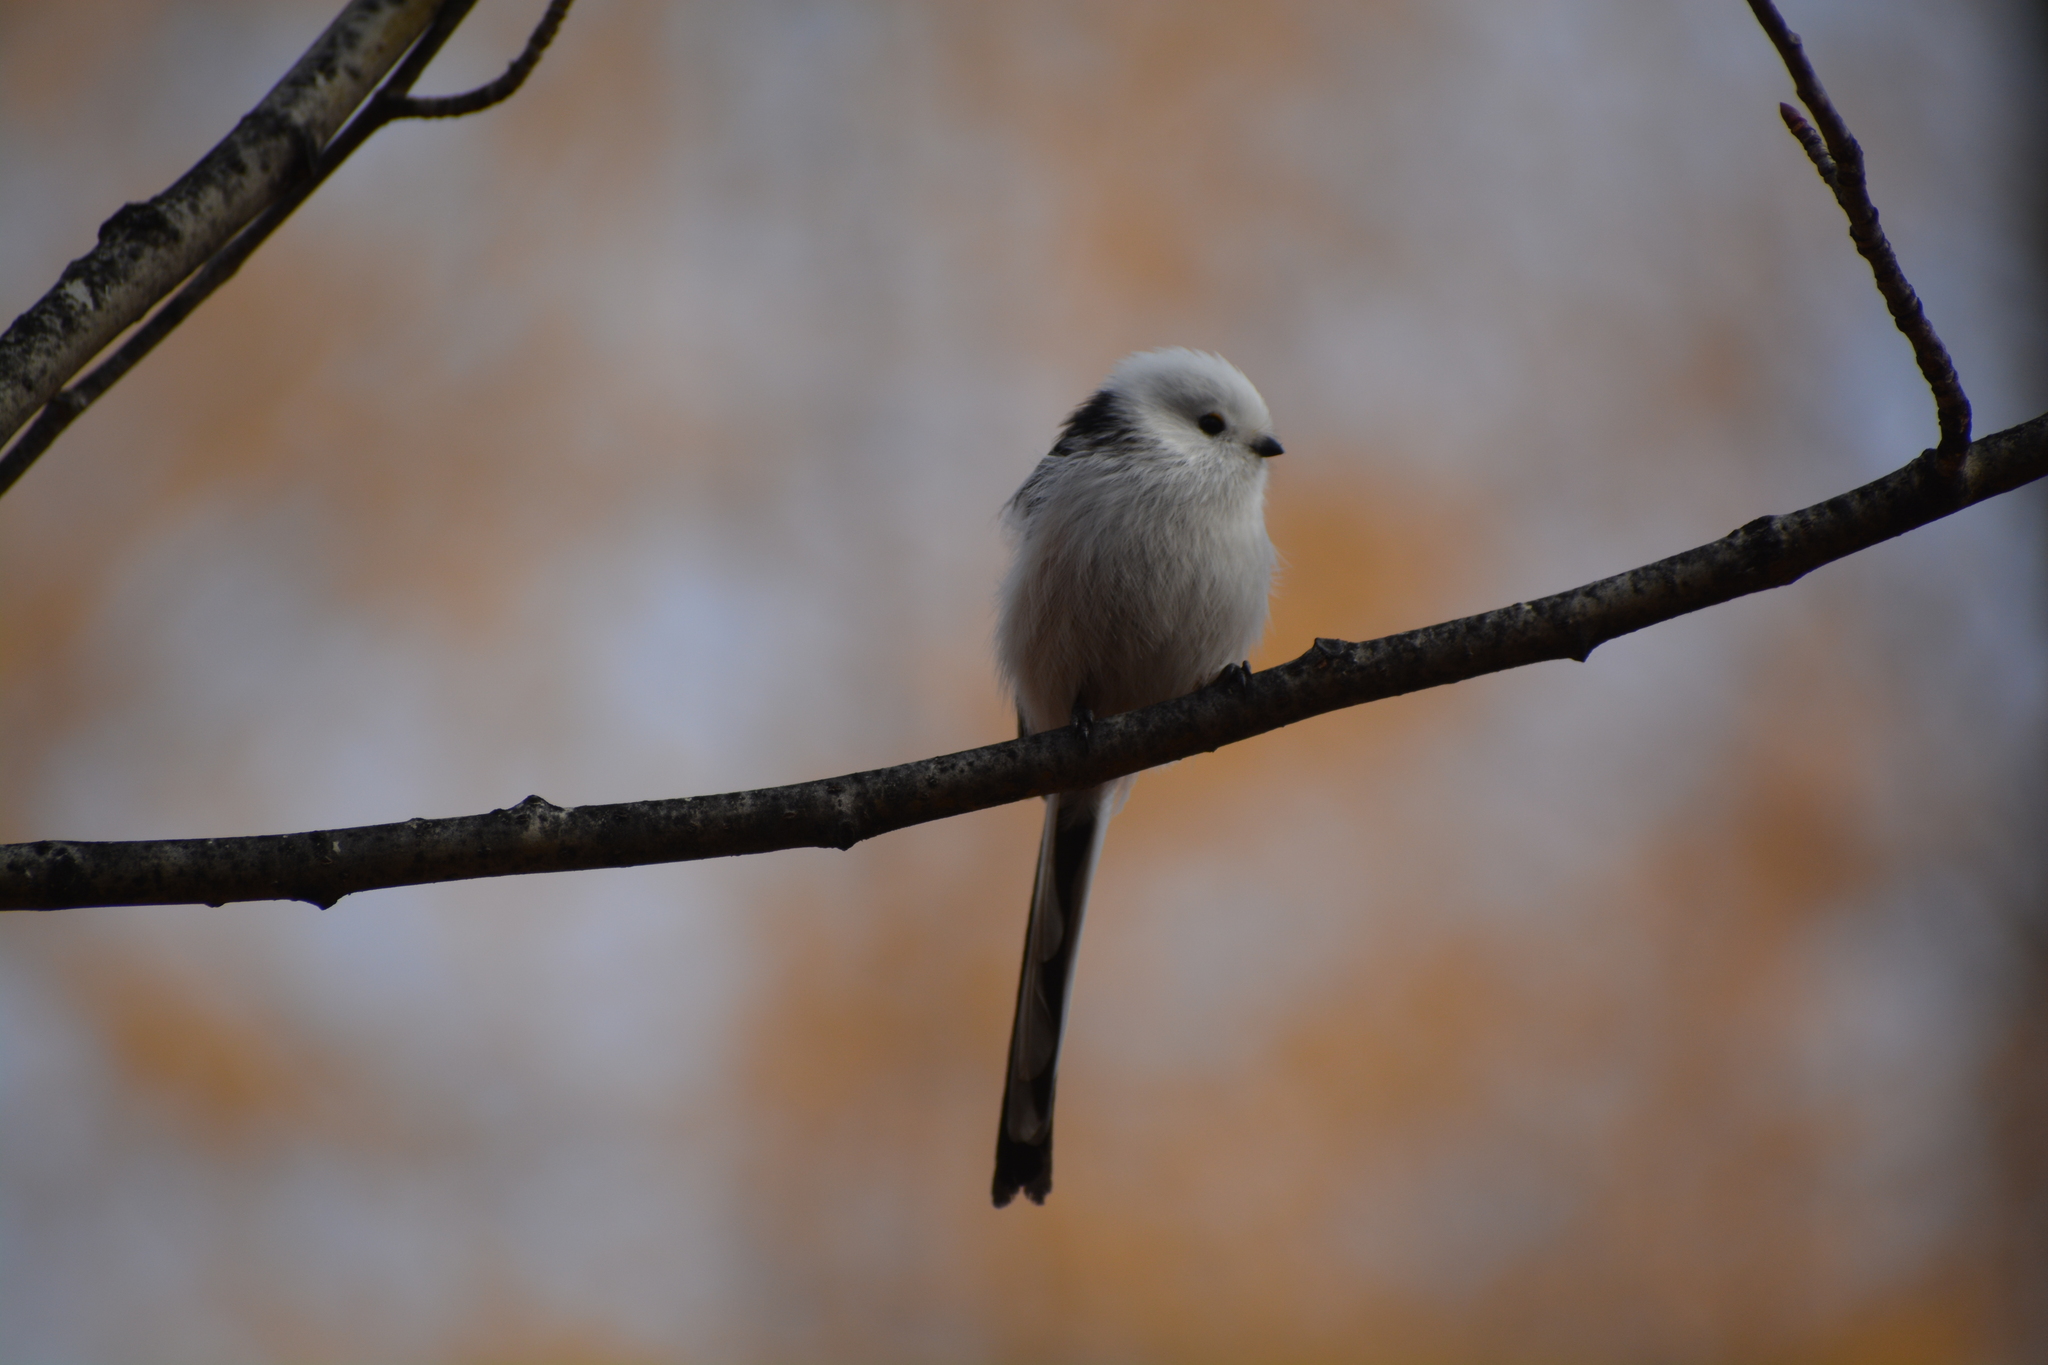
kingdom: Animalia
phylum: Chordata
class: Aves
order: Passeriformes
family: Aegithalidae
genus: Aegithalos
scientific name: Aegithalos caudatus
